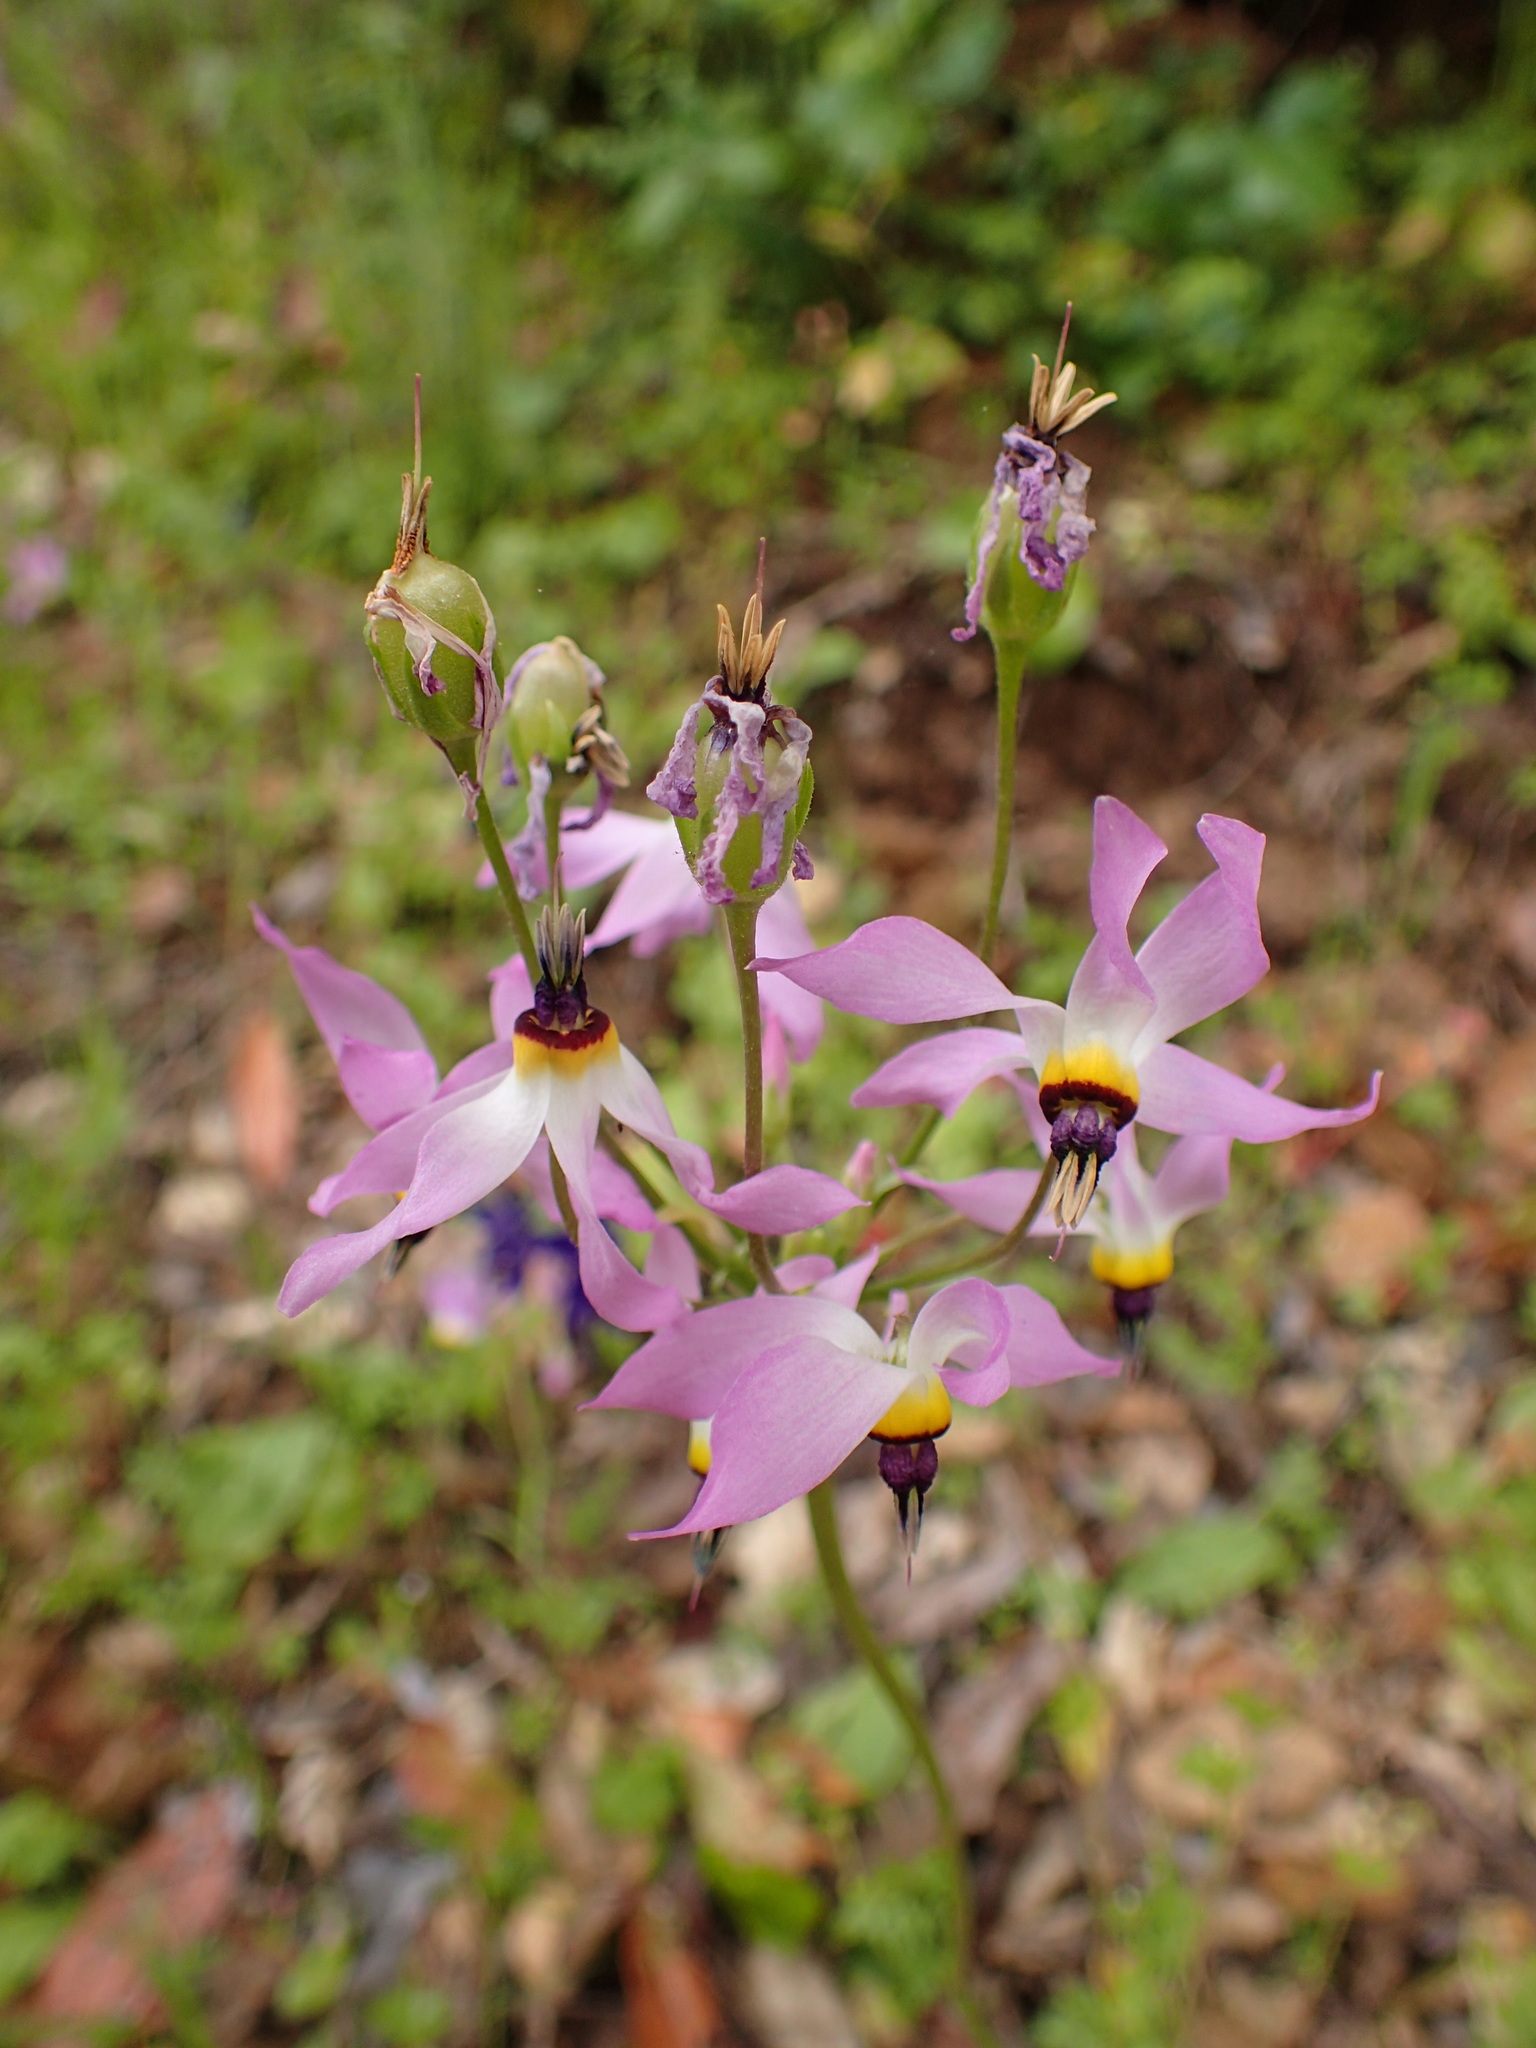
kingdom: Plantae
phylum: Tracheophyta
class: Magnoliopsida
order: Ericales
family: Primulaceae
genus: Dodecatheon
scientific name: Dodecatheon clevelandii
